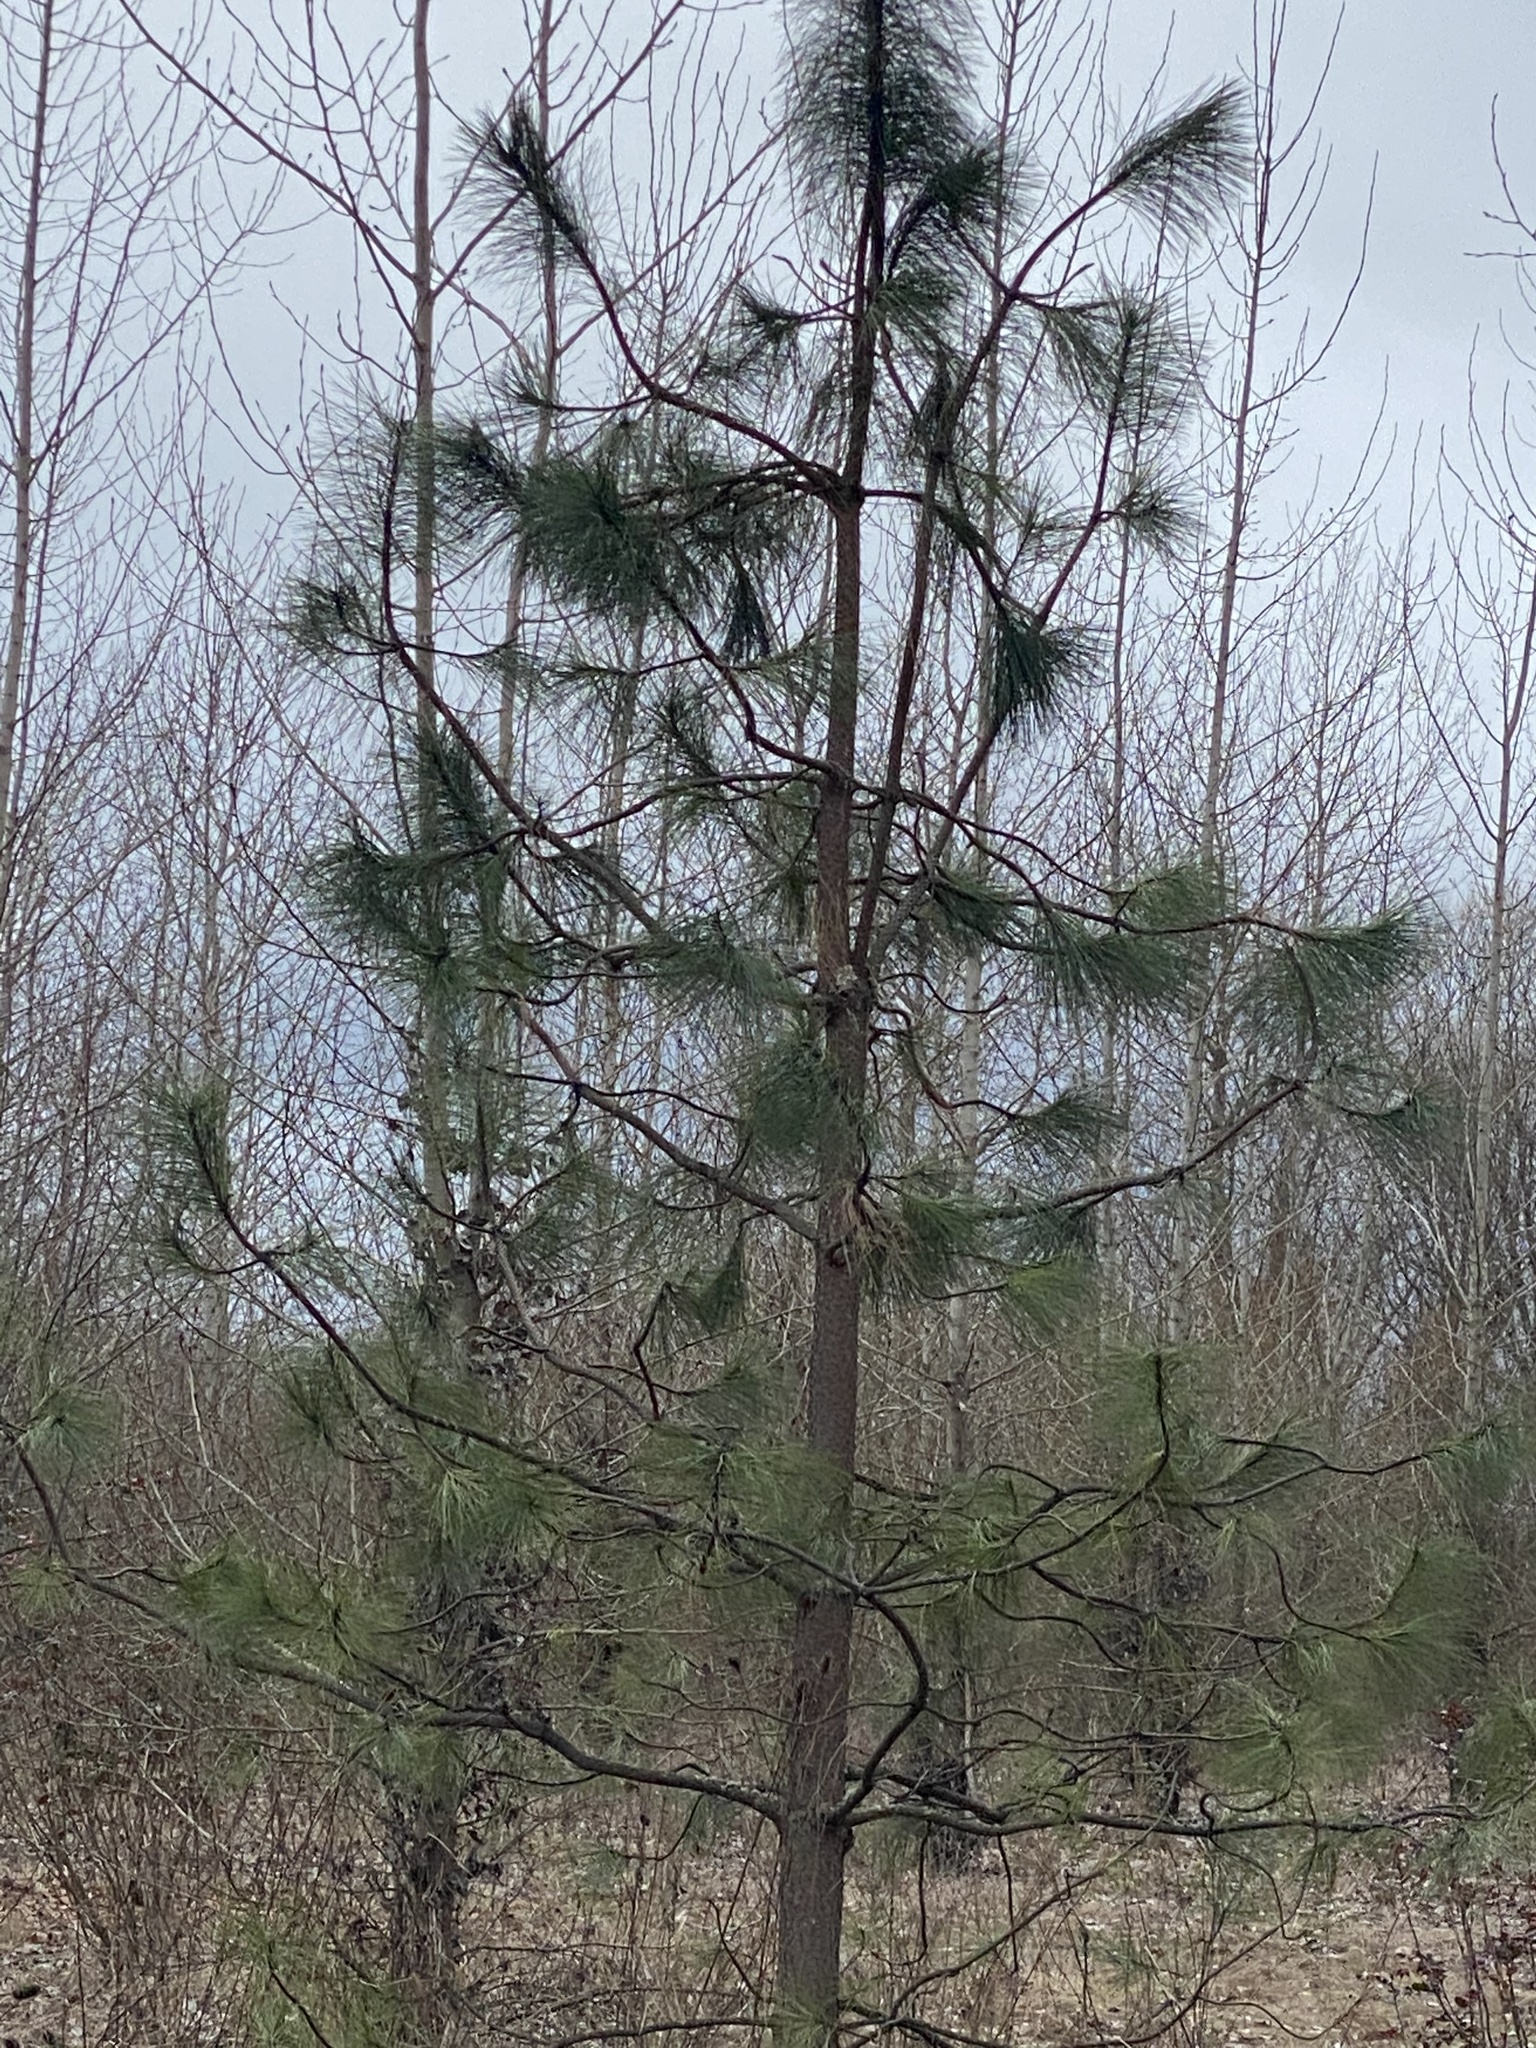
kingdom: Plantae
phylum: Tracheophyta
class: Pinopsida
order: Pinales
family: Pinaceae
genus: Pinus
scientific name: Pinus ponderosa
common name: Western yellow-pine
